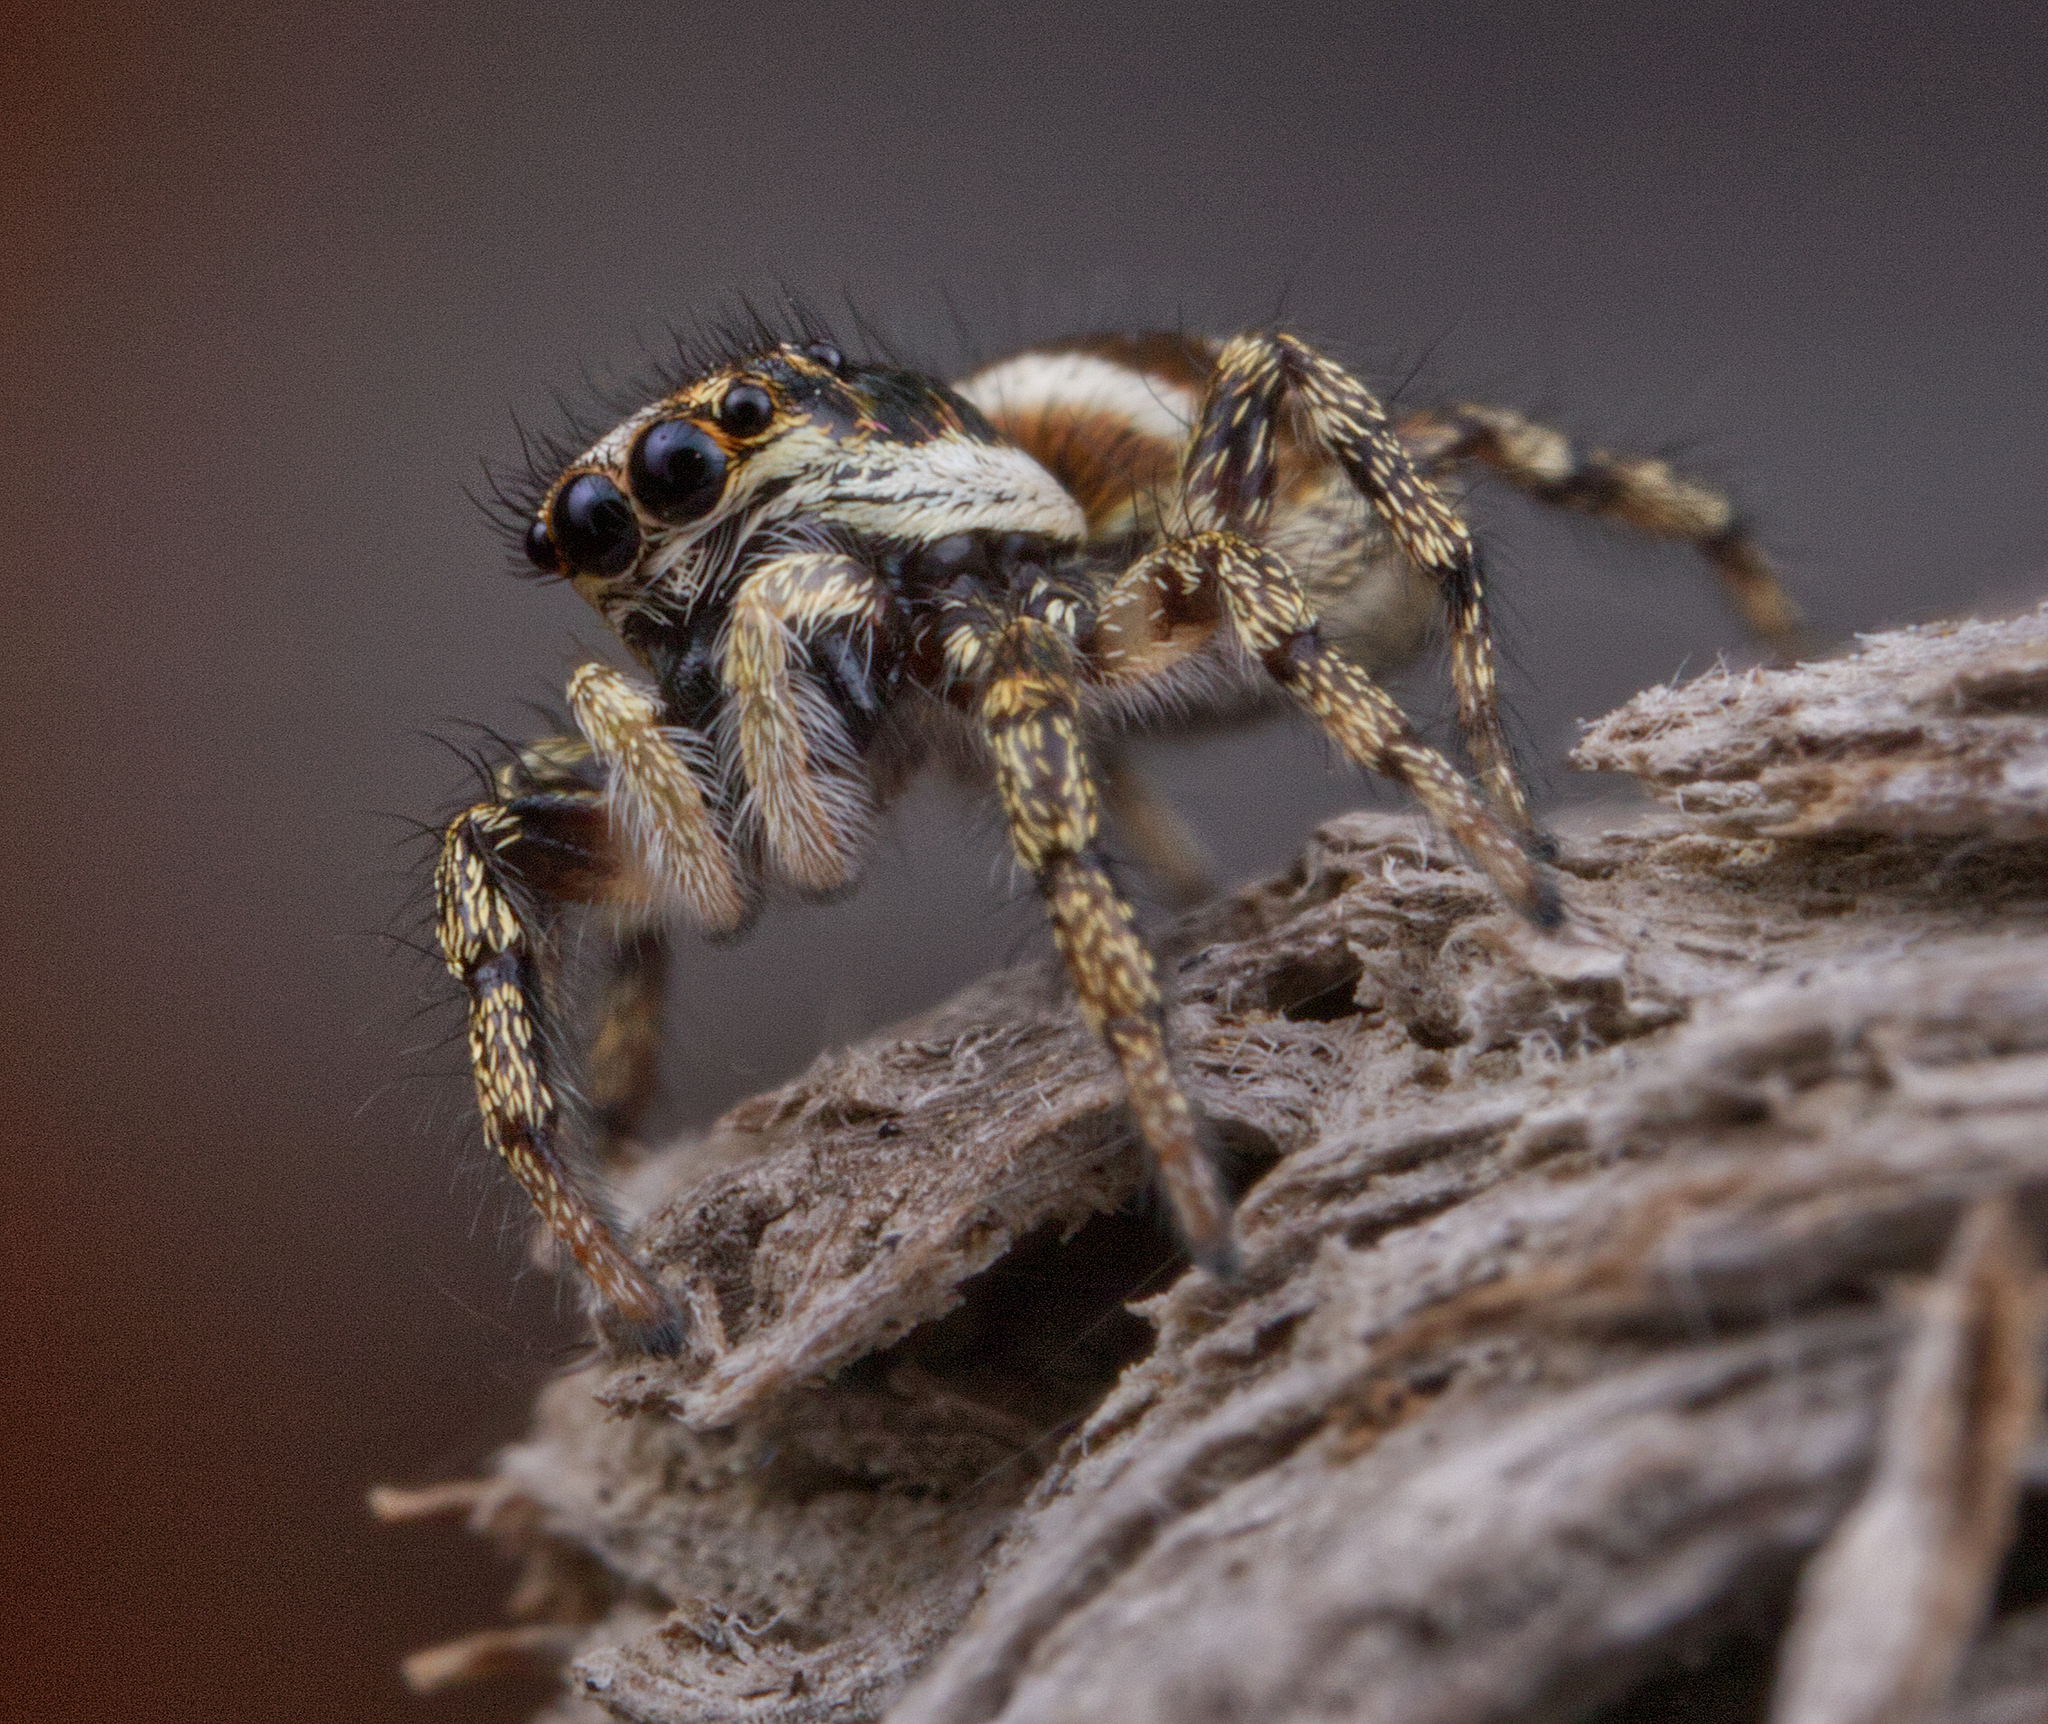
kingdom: Animalia
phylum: Arthropoda
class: Arachnida
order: Araneae
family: Salticidae
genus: Salticus
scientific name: Salticus scenicus
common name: Zebra jumper
